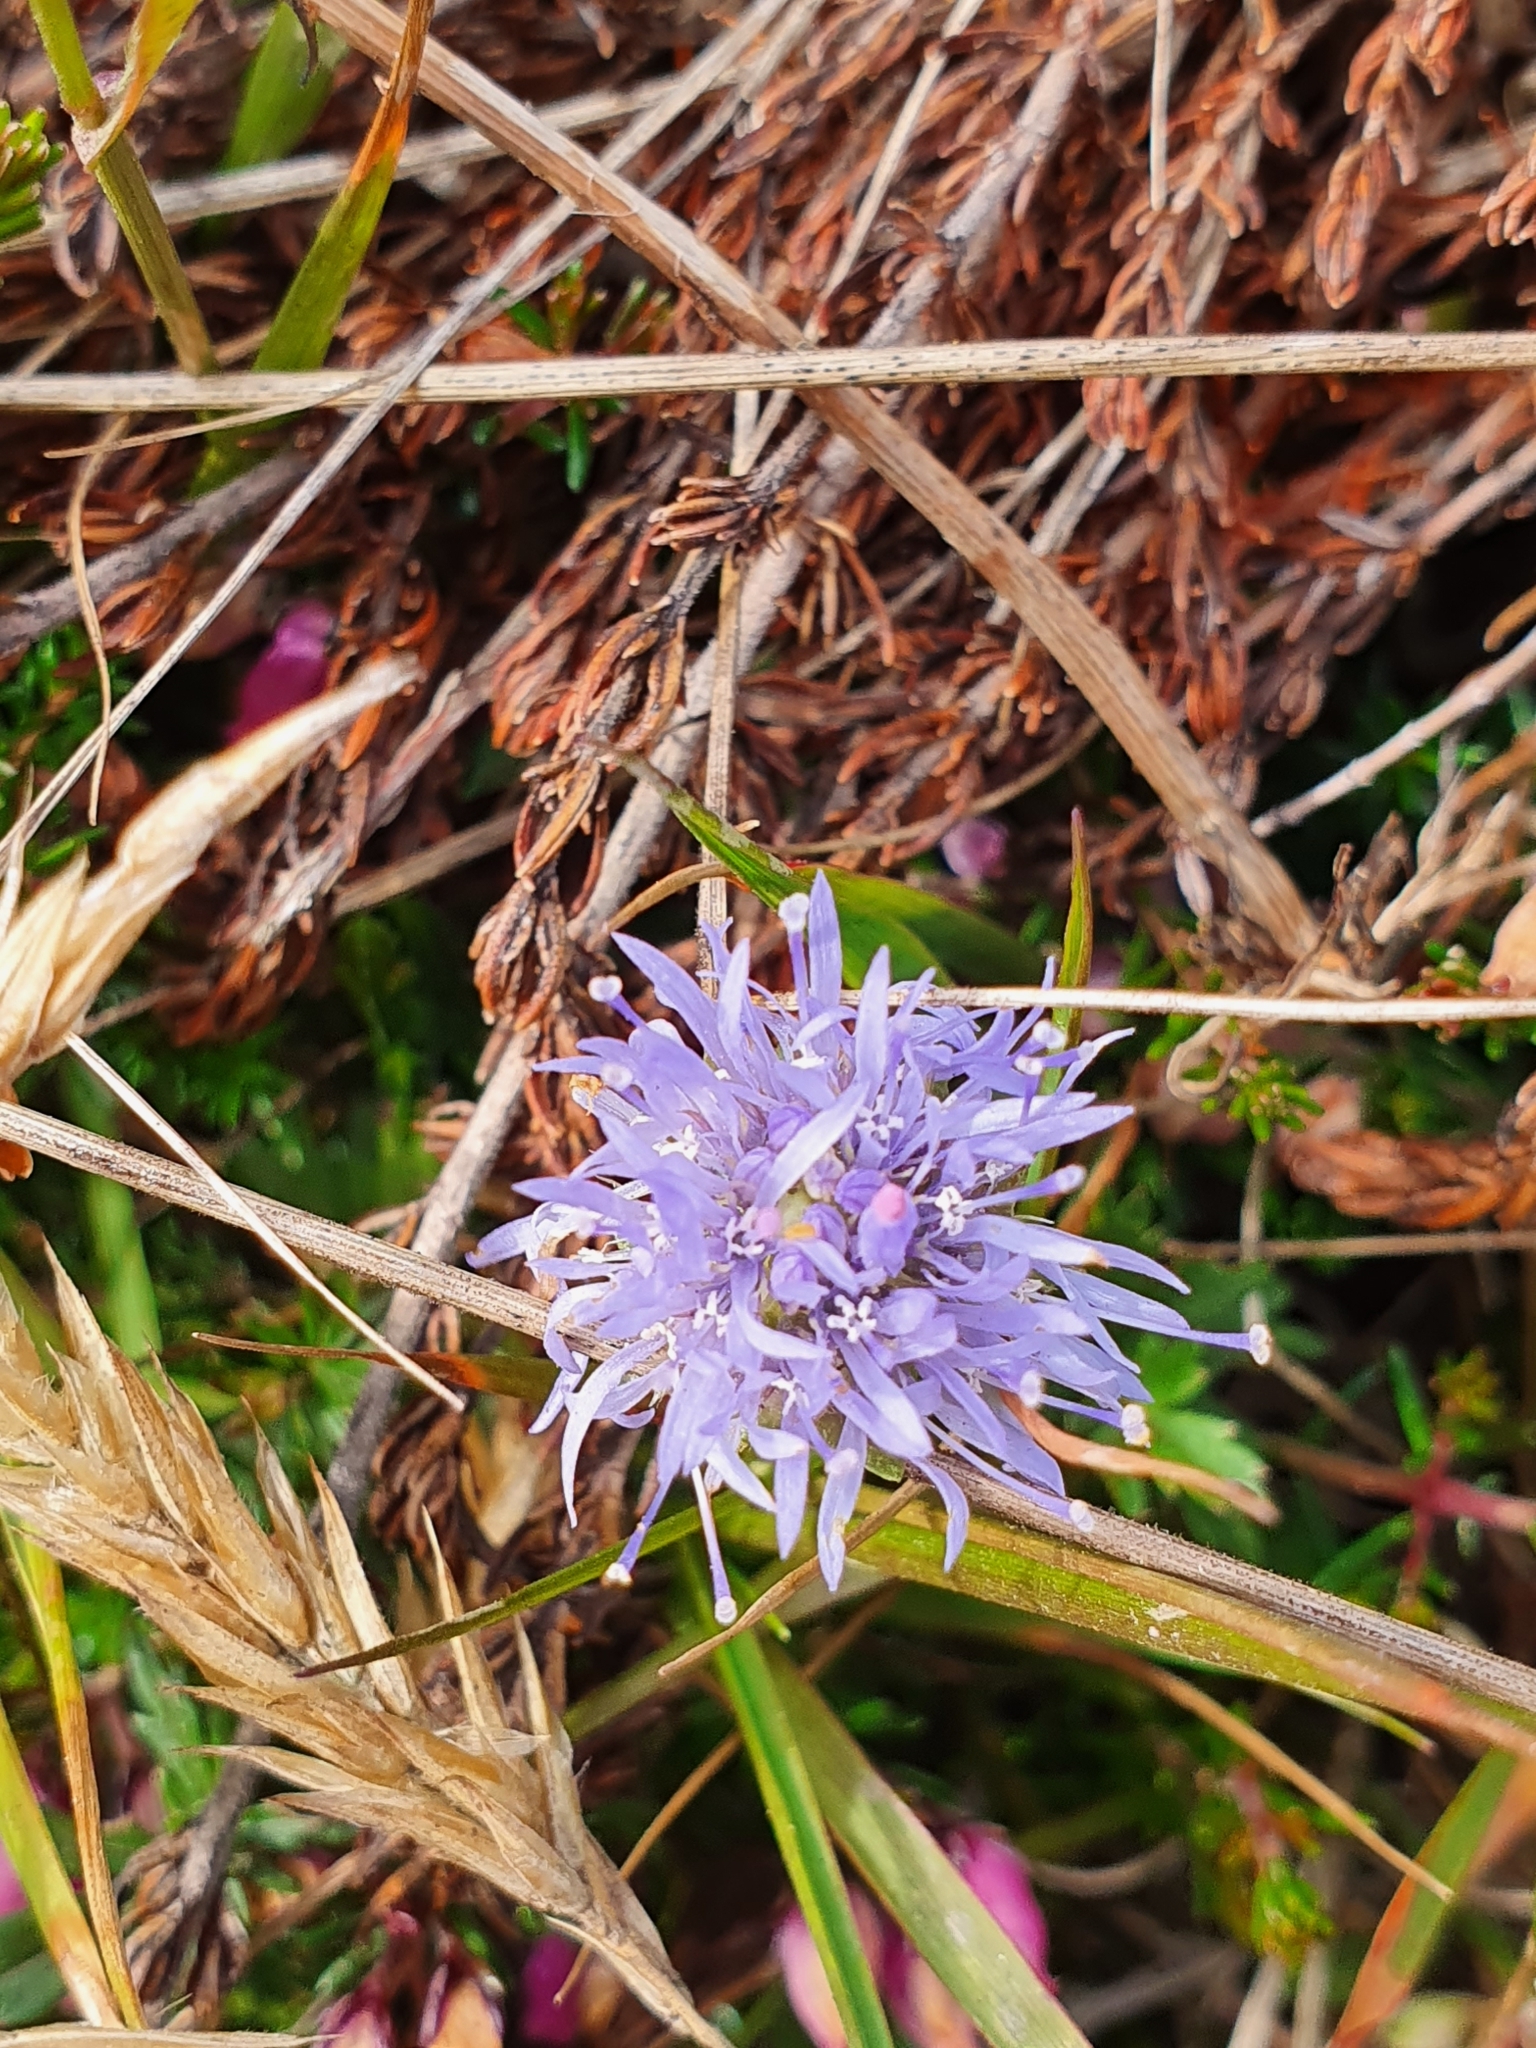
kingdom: Plantae
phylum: Tracheophyta
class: Magnoliopsida
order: Asterales
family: Campanulaceae
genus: Jasione
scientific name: Jasione montana
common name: Sheep's-bit
